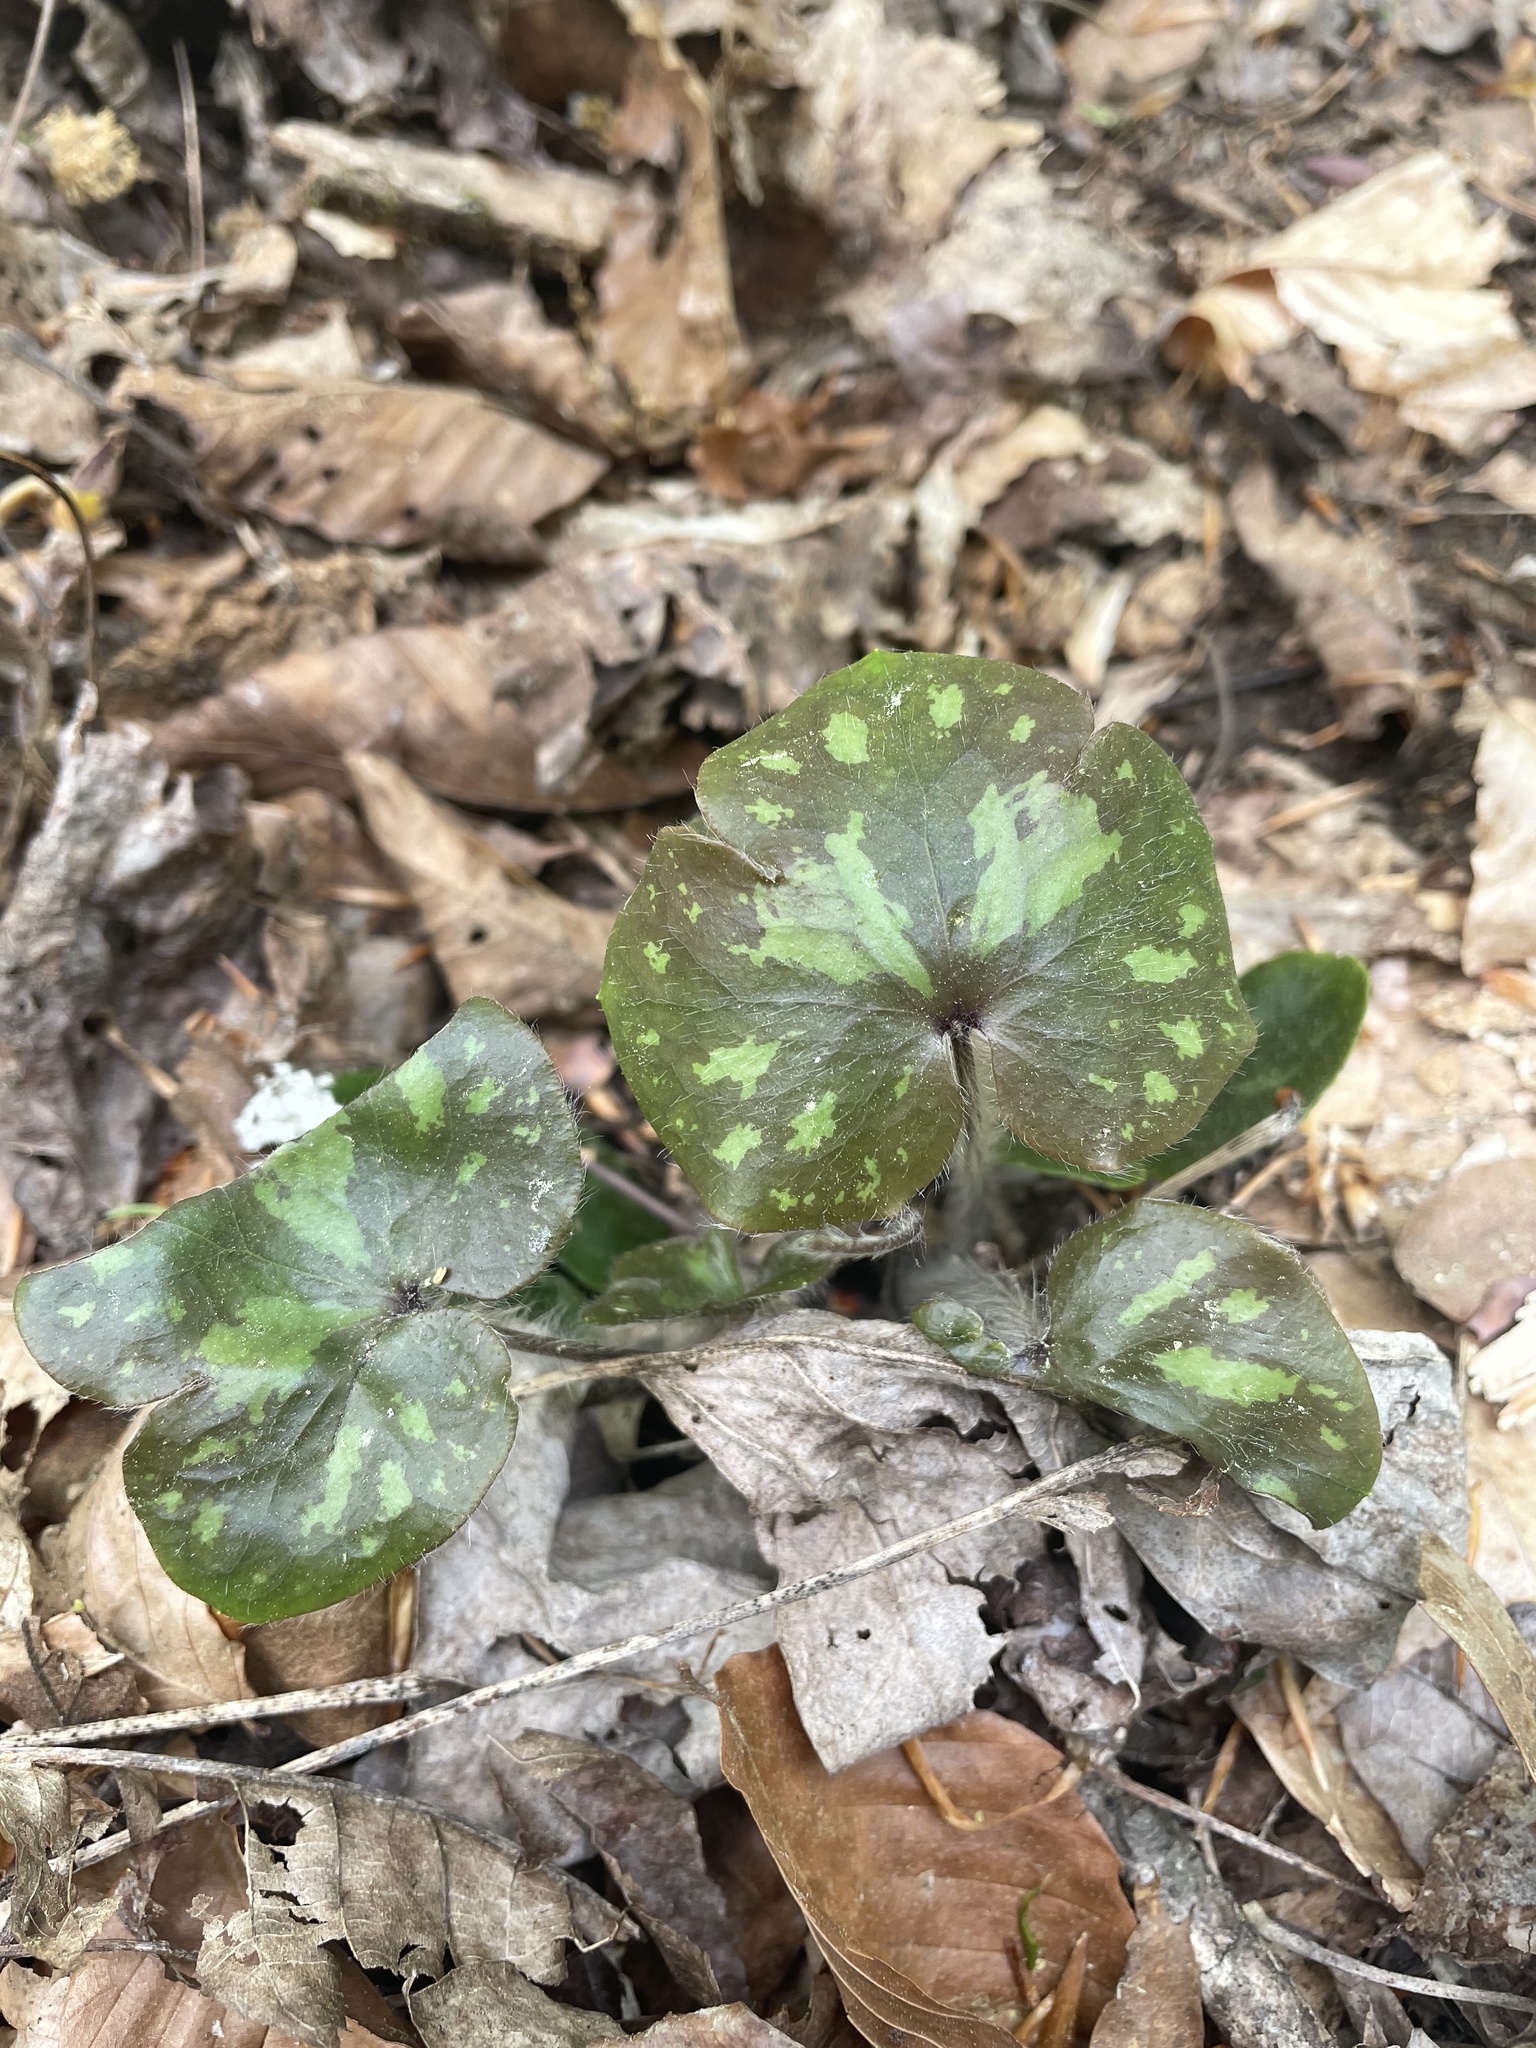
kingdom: Plantae
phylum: Tracheophyta
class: Magnoliopsida
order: Ranunculales
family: Ranunculaceae
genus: Hepatica
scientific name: Hepatica americana
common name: American hepatica
